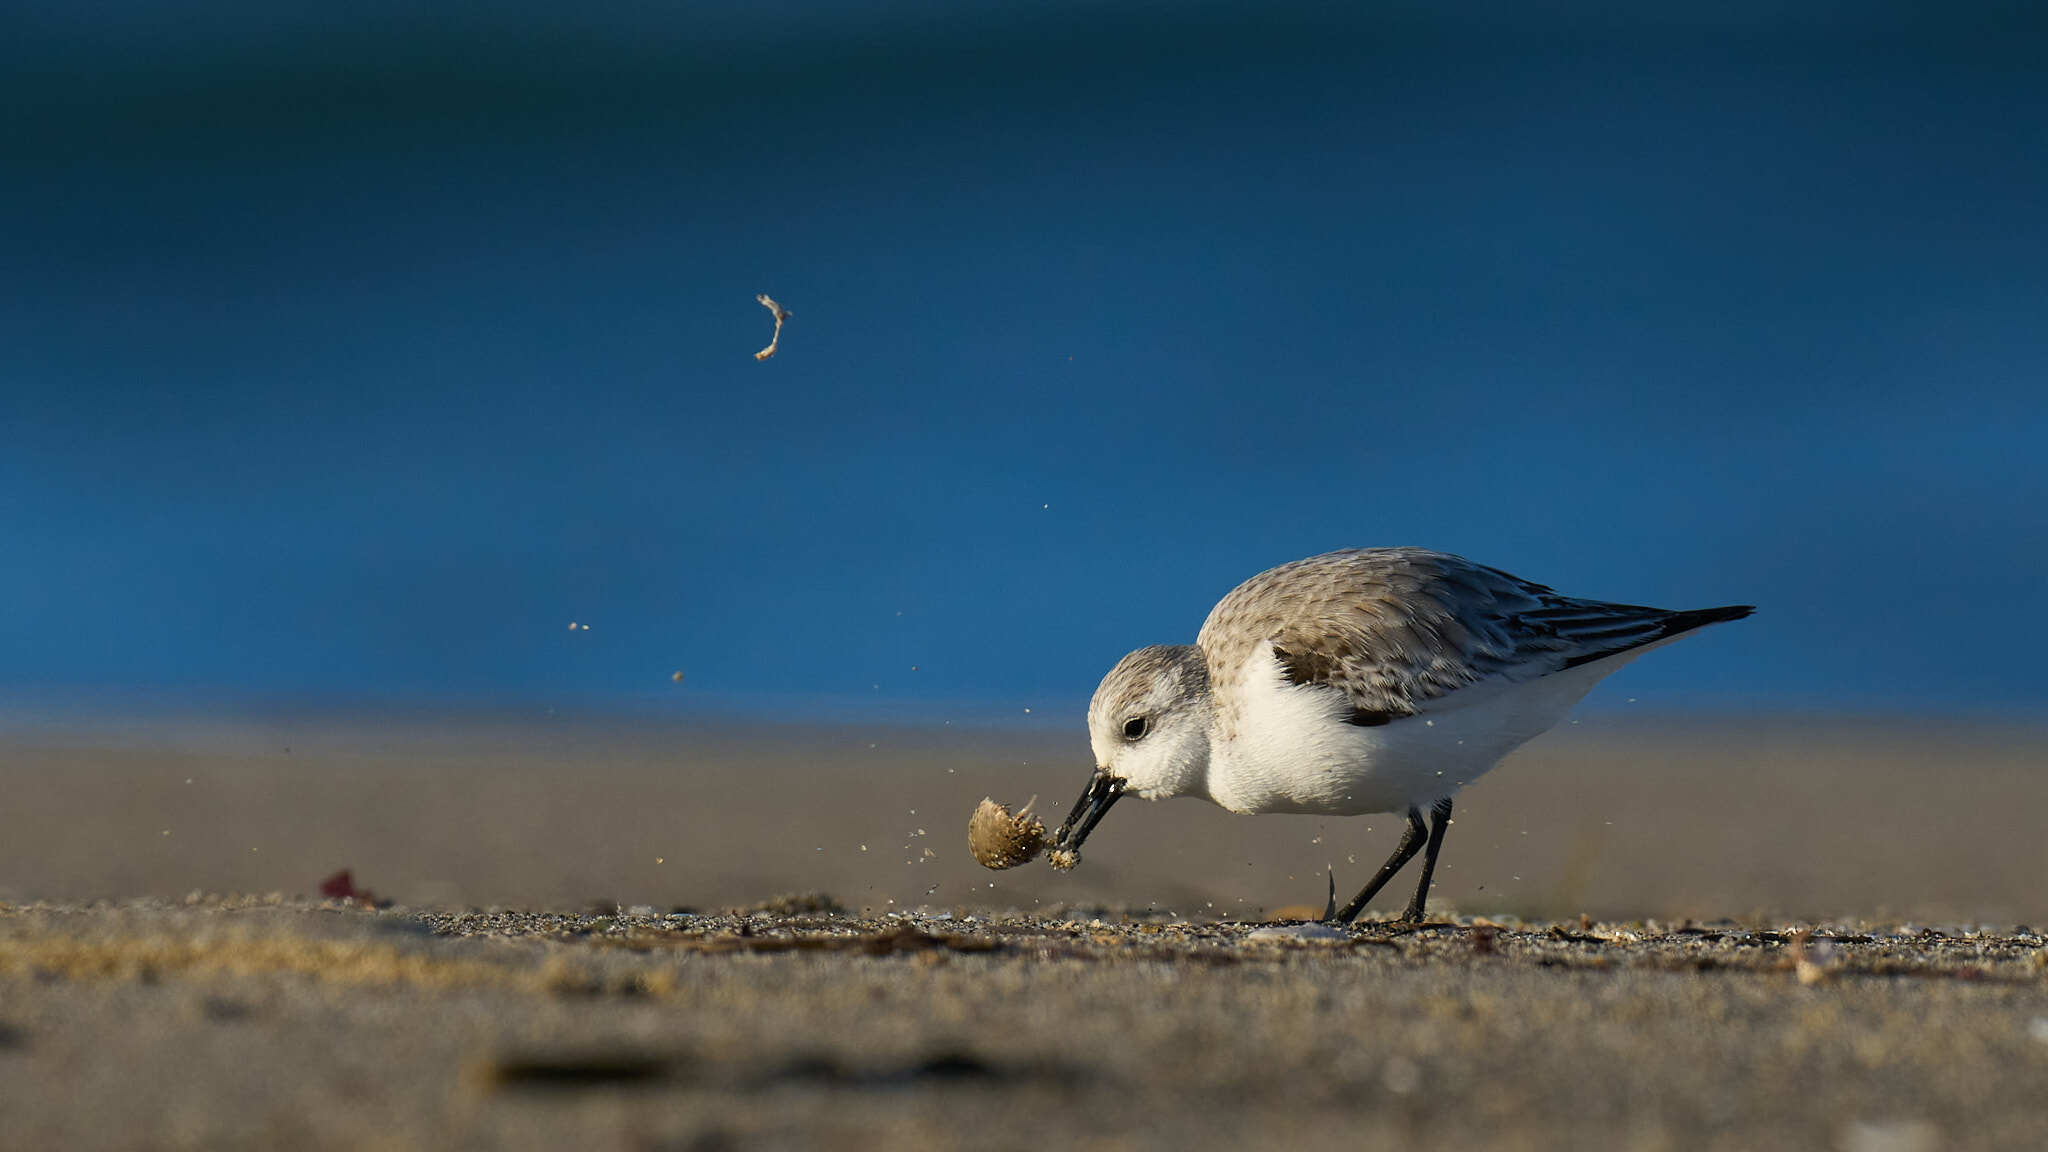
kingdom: Animalia
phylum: Chordata
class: Aves
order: Charadriiformes
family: Scolopacidae
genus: Calidris
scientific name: Calidris alba
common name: Sanderling
